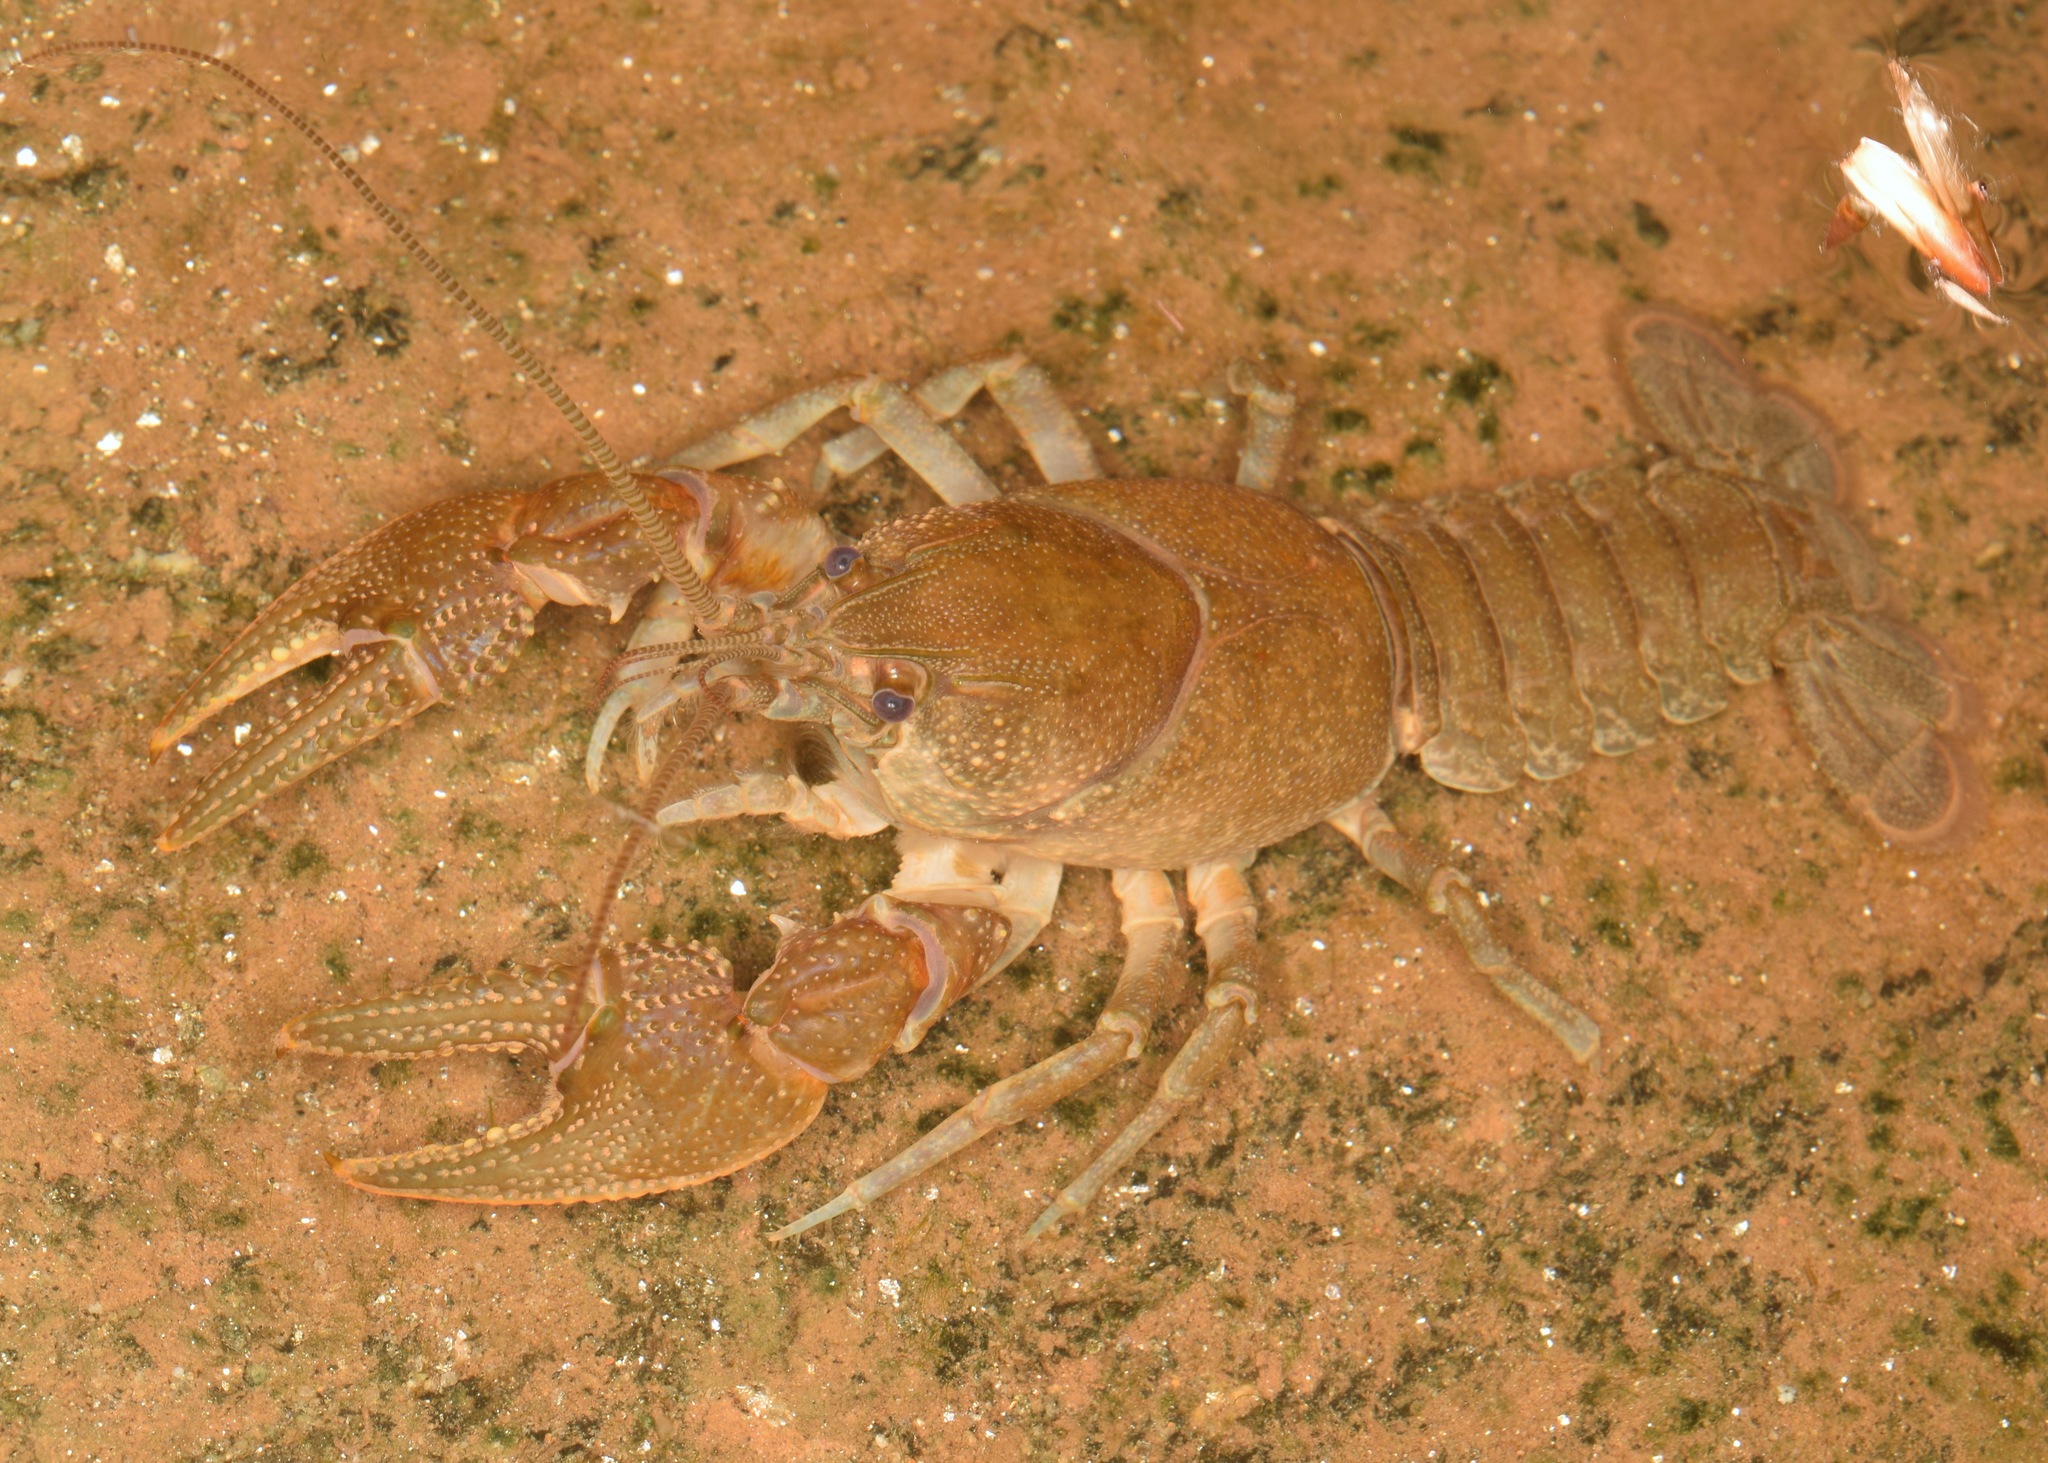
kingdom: Animalia
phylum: Arthropoda
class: Malacostraca
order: Decapoda
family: Cambaridae
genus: Cambarus
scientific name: Cambarus latimanus
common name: Variable crayfish
